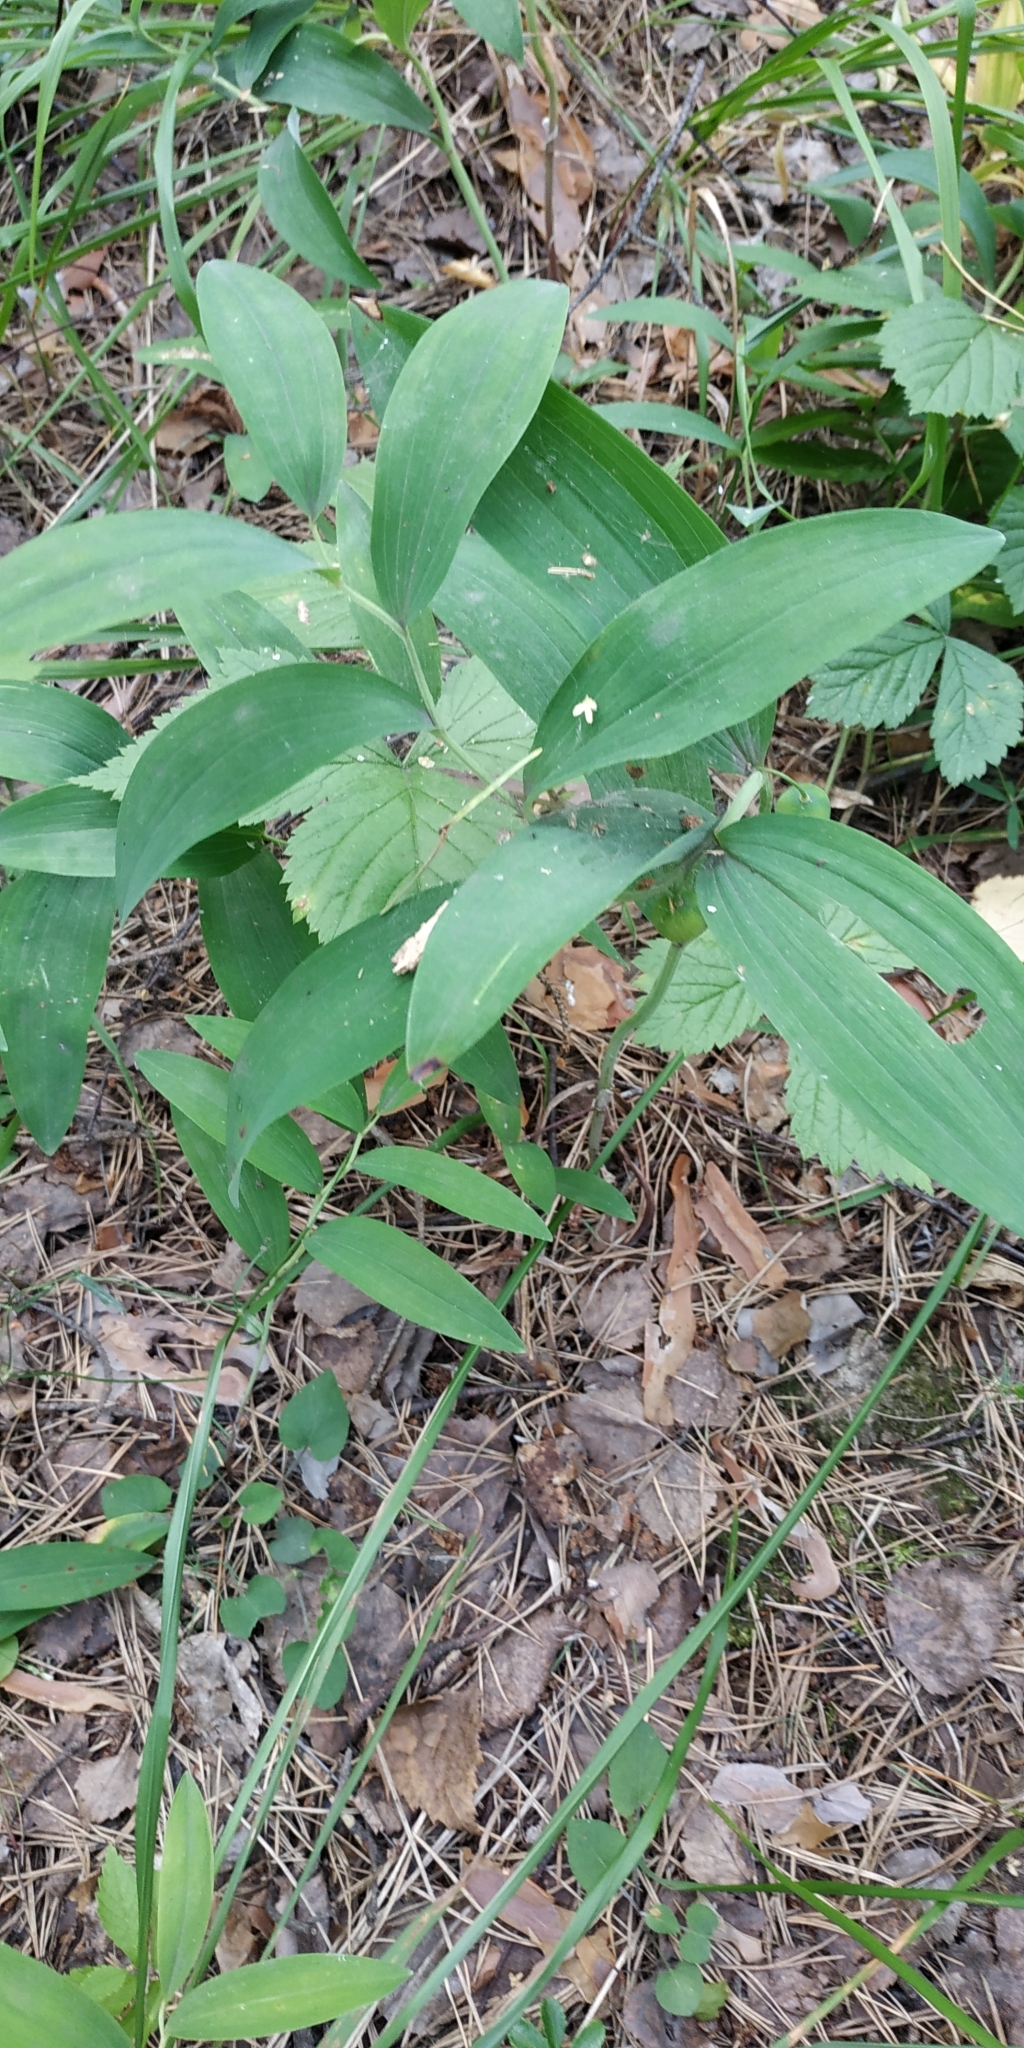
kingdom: Plantae
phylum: Tracheophyta
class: Liliopsida
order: Asparagales
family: Asparagaceae
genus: Polygonatum
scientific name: Polygonatum odoratum
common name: Angular solomon's-seal
